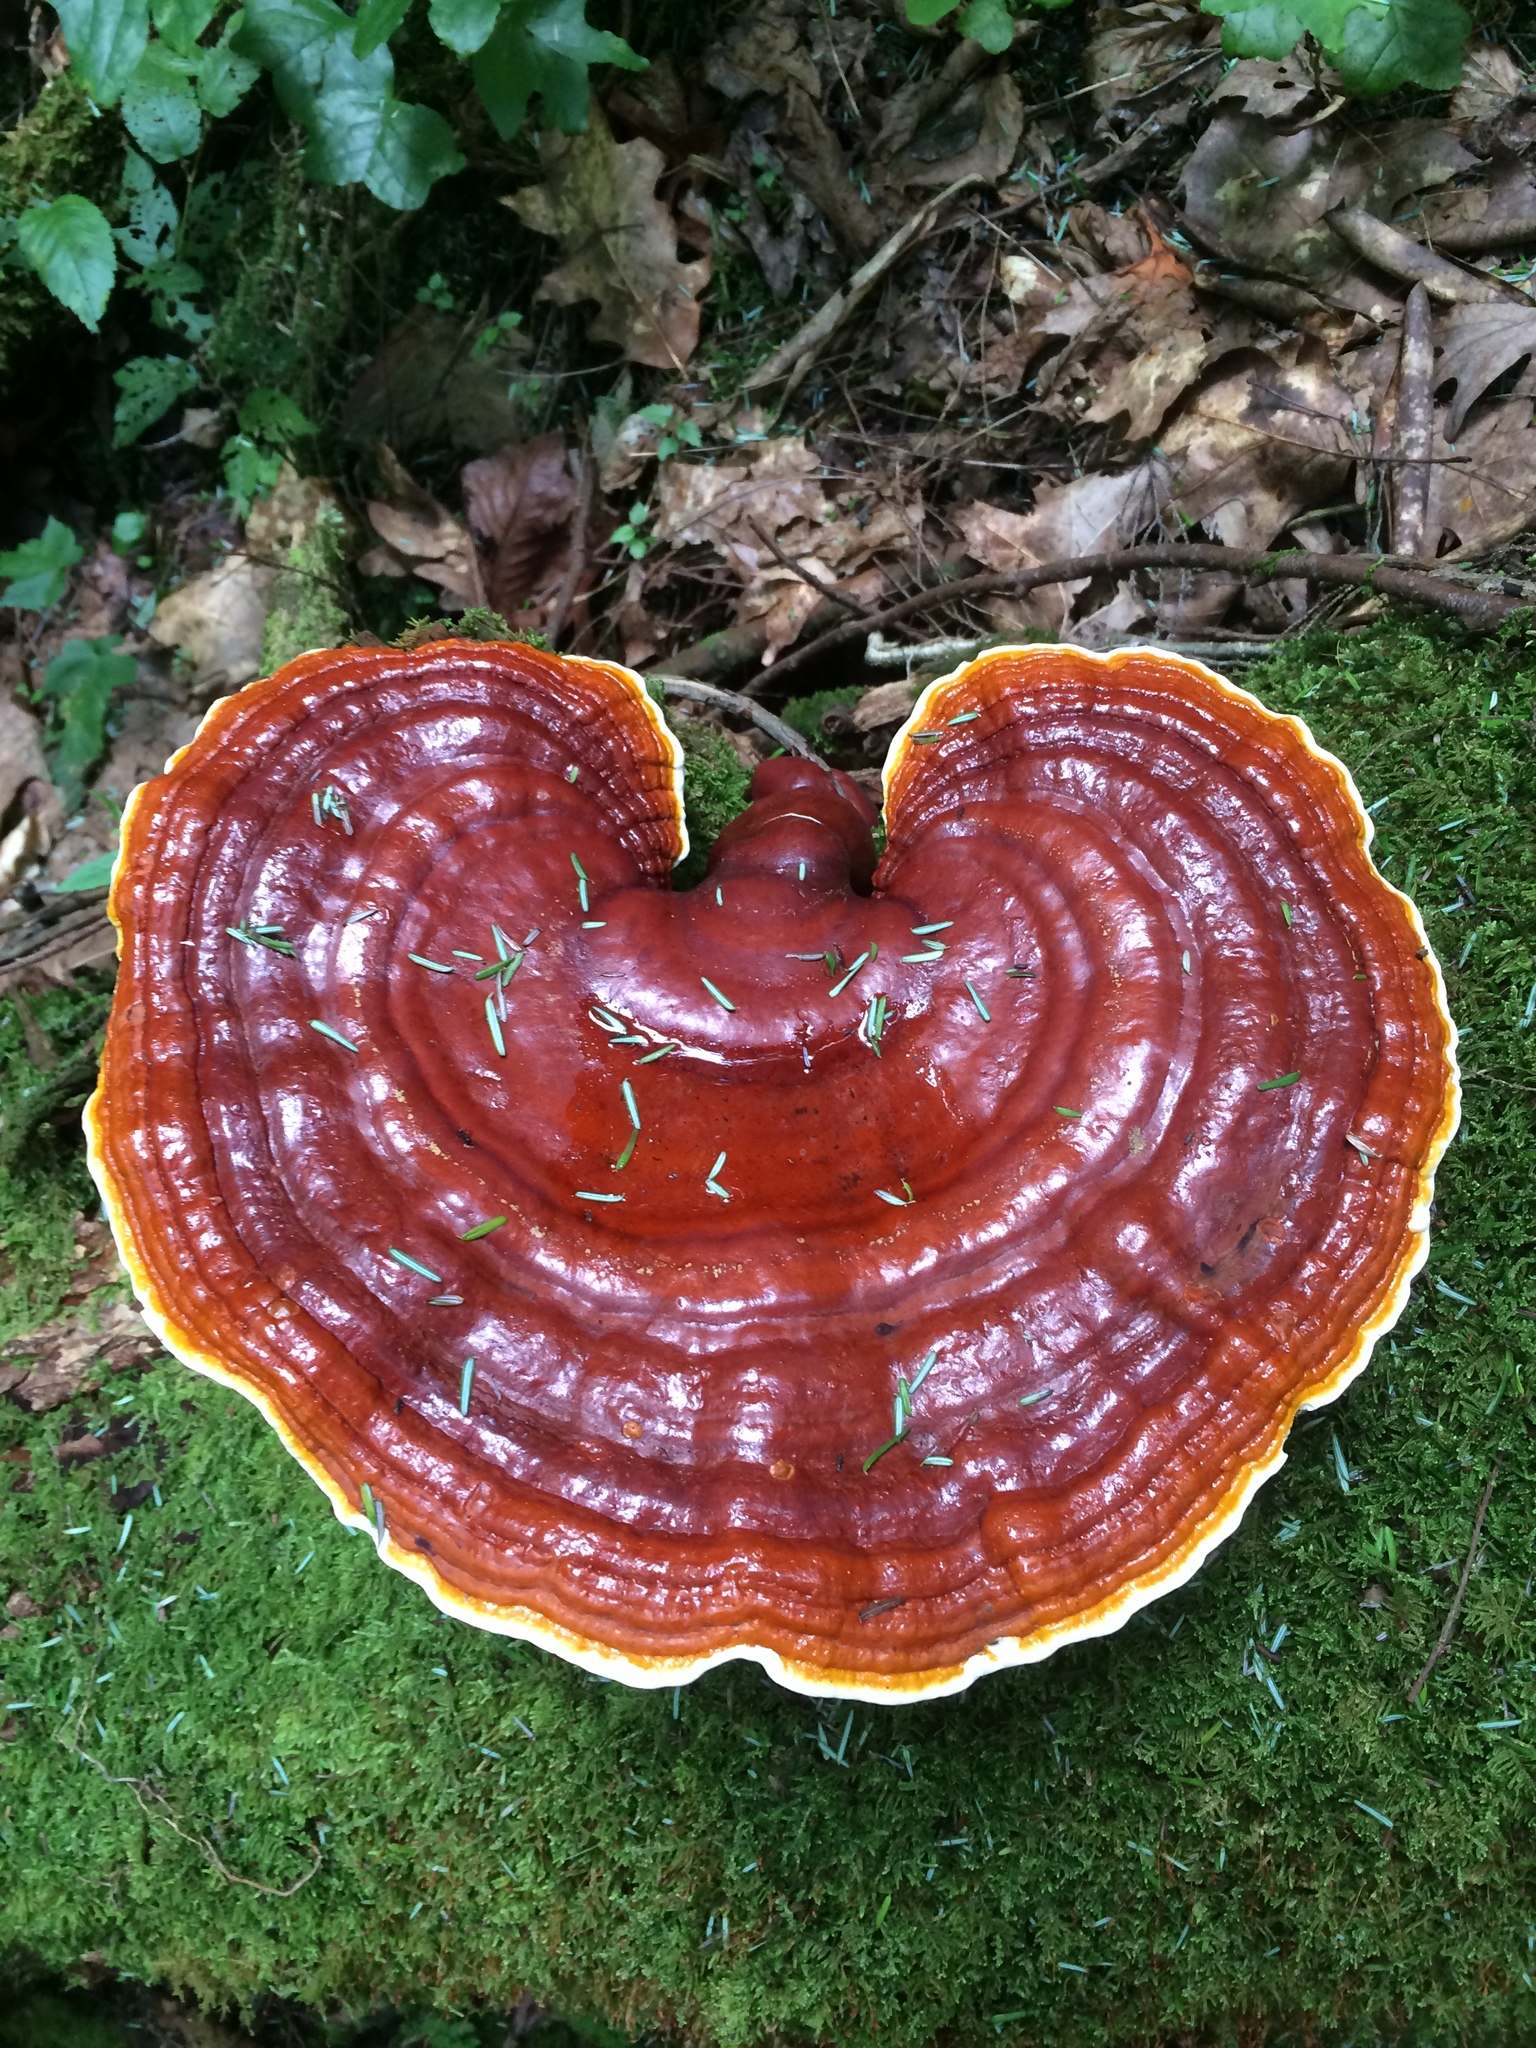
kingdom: Fungi
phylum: Basidiomycota
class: Agaricomycetes
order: Polyporales
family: Polyporaceae
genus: Ganoderma
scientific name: Ganoderma tsugae
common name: Hemlock varnish shelf
